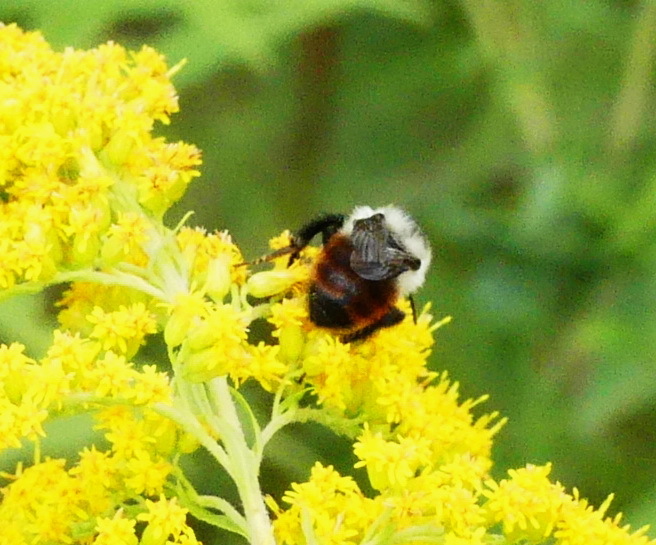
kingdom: Animalia
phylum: Arthropoda
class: Insecta
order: Hymenoptera
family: Apidae
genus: Bombus
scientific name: Bombus rufocinctus
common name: Red-belted bumble bee
